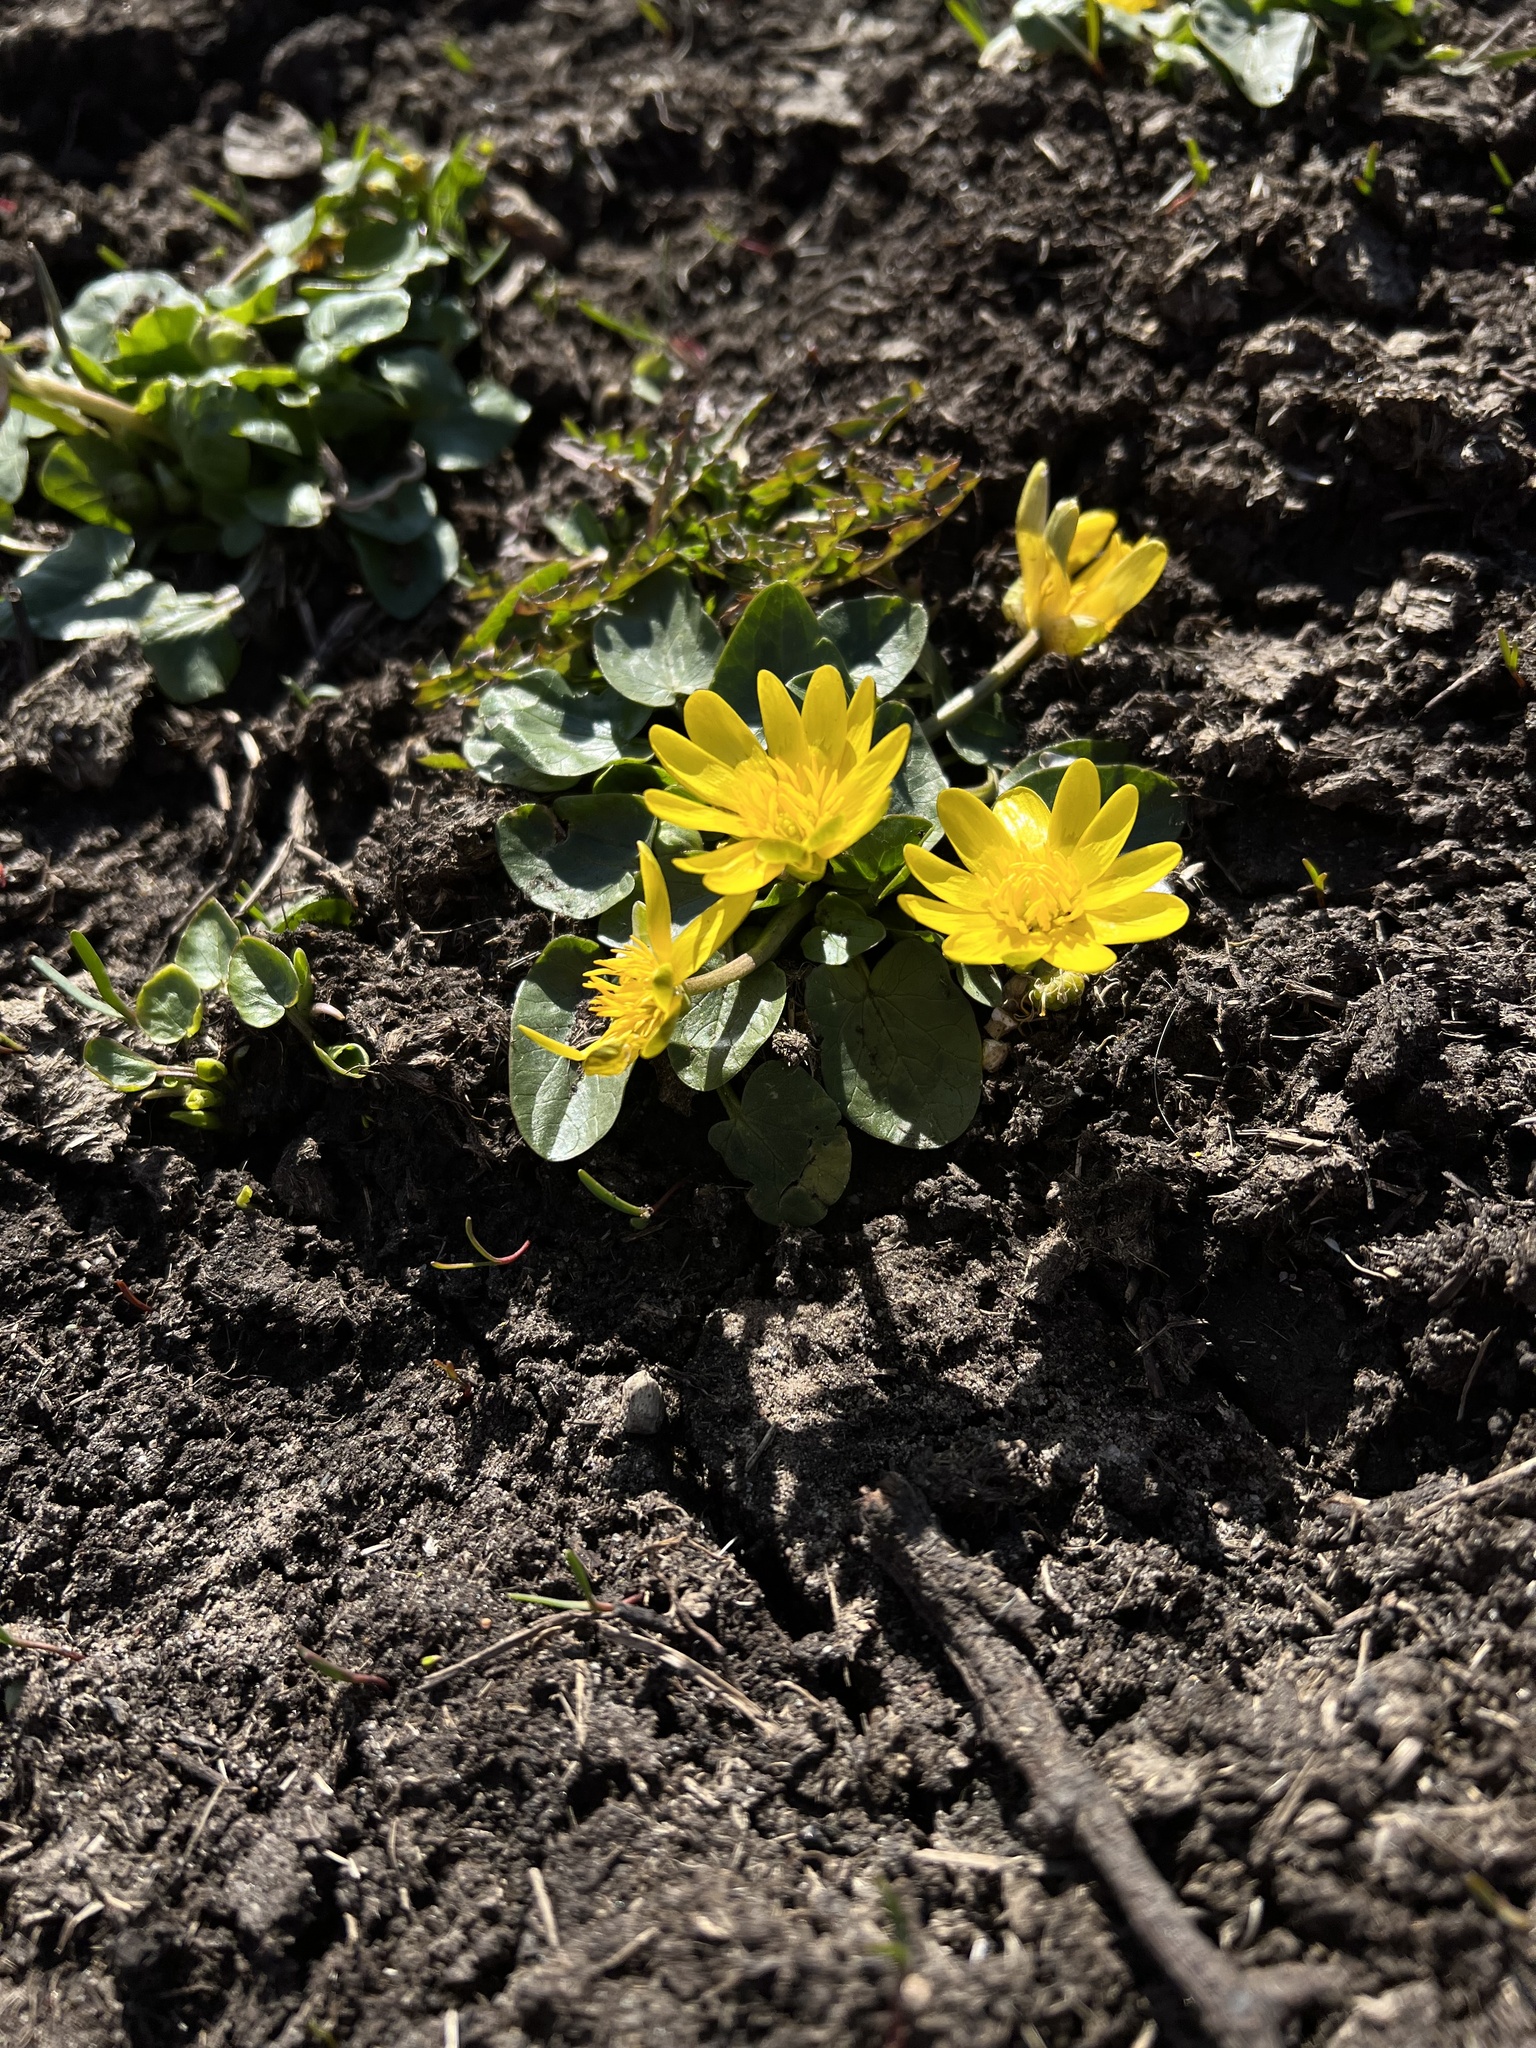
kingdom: Plantae
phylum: Tracheophyta
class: Magnoliopsida
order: Ranunculales
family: Ranunculaceae
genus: Ficaria
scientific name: Ficaria verna
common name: Lesser celandine
